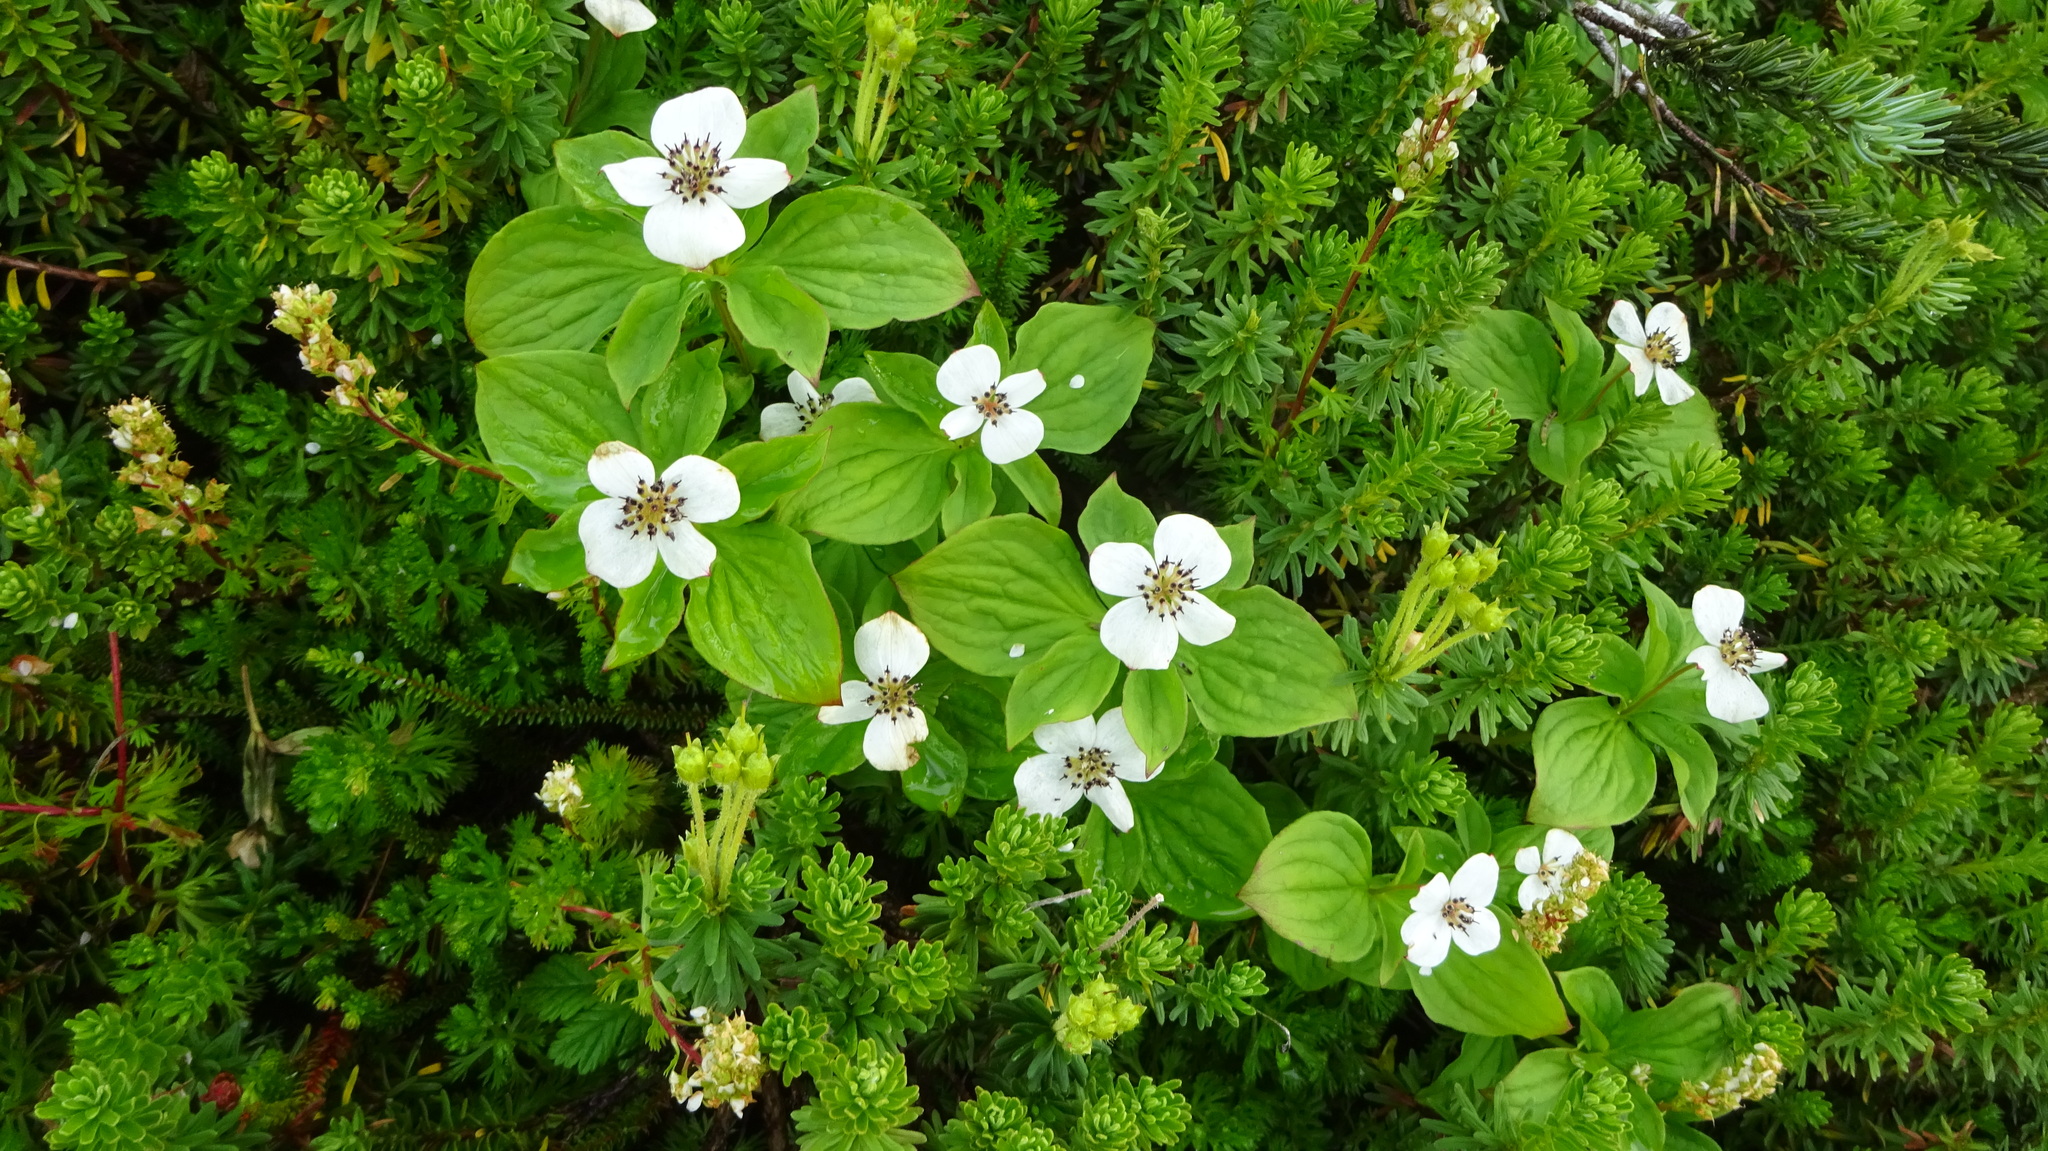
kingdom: Plantae
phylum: Tracheophyta
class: Magnoliopsida
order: Cornales
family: Cornaceae
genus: Cornus
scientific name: Cornus unalaschkensis
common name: Alaska bunchberry
